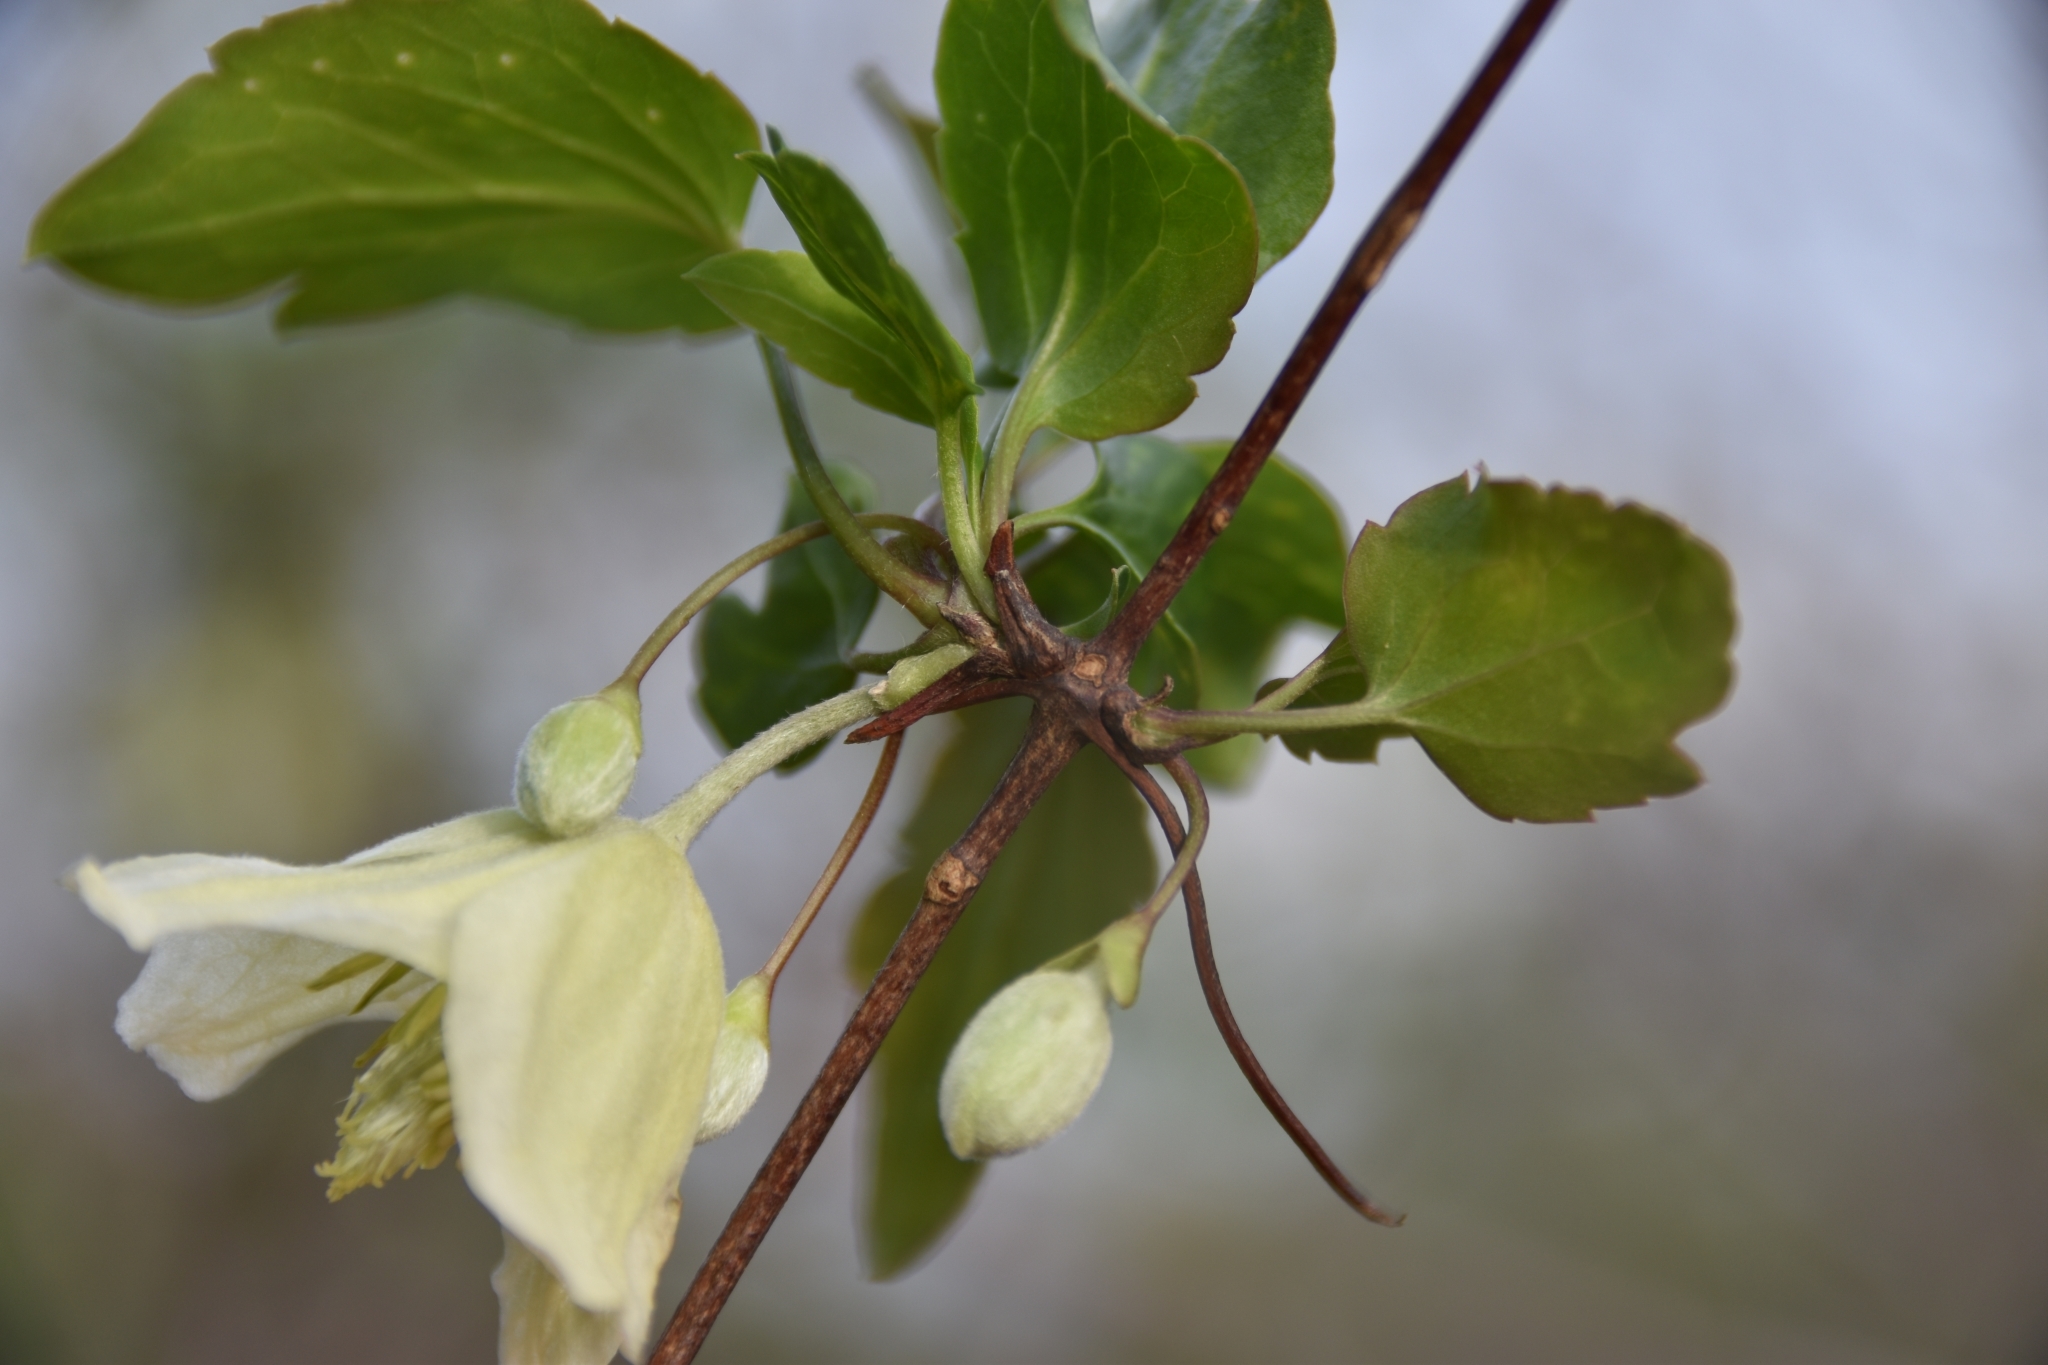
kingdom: Plantae
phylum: Tracheophyta
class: Magnoliopsida
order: Ranunculales
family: Ranunculaceae
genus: Clematis
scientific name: Clematis cirrhosa
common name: Early virgin's-bower
